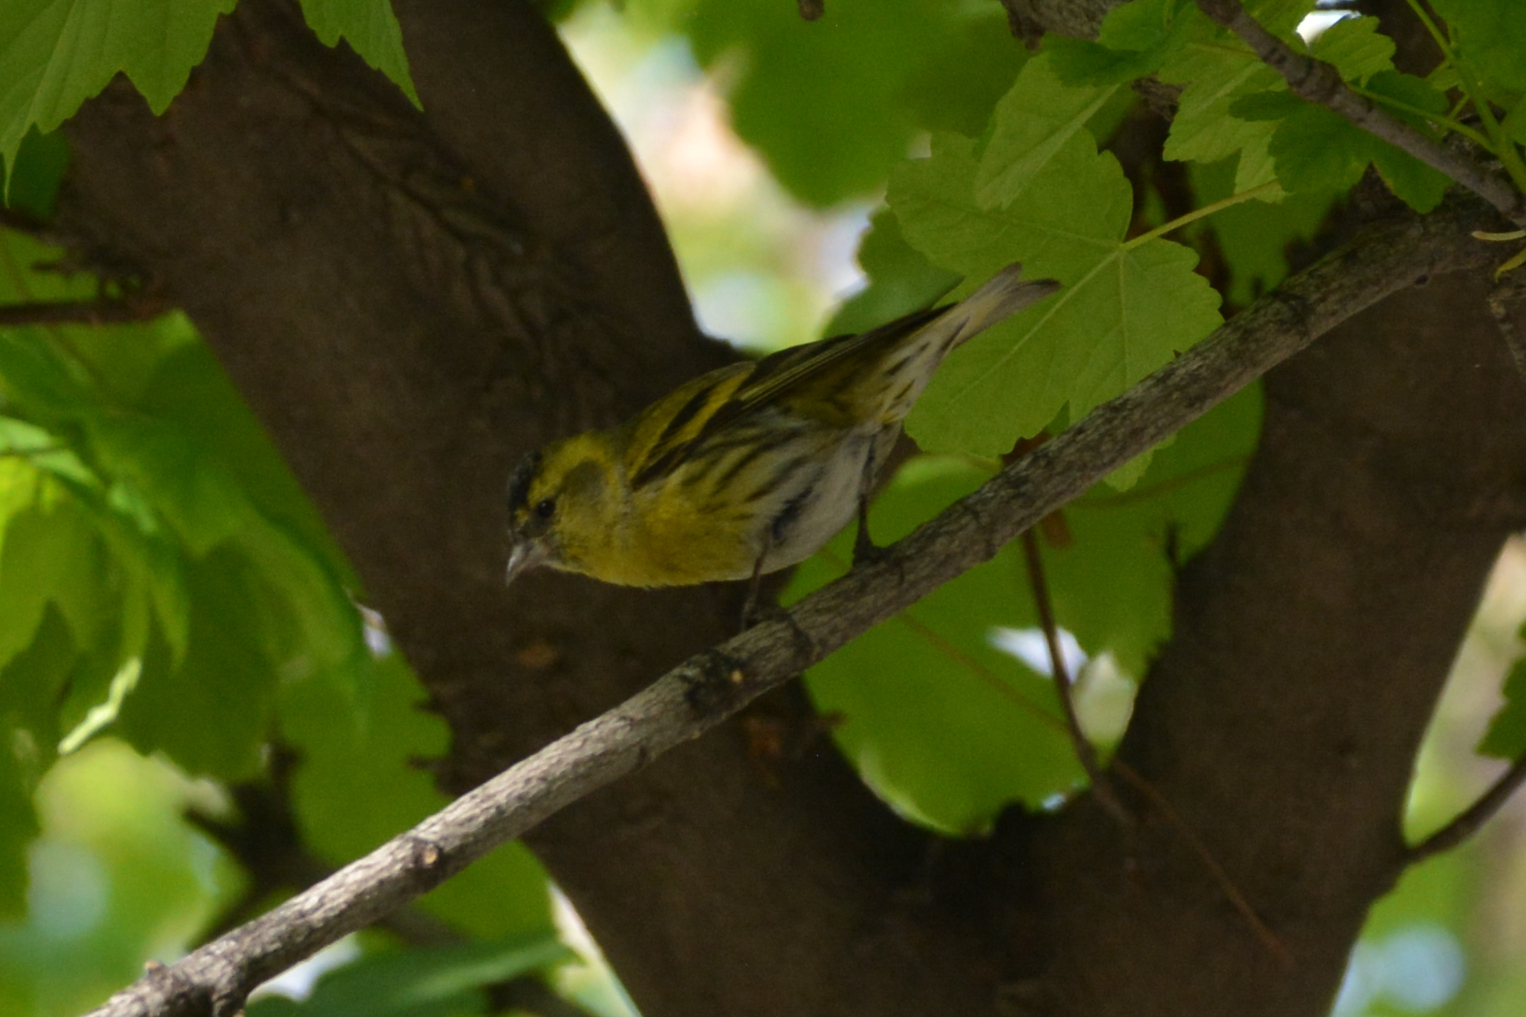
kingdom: Animalia
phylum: Chordata
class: Aves
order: Passeriformes
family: Fringillidae
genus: Spinus
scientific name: Spinus spinus
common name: Eurasian siskin
